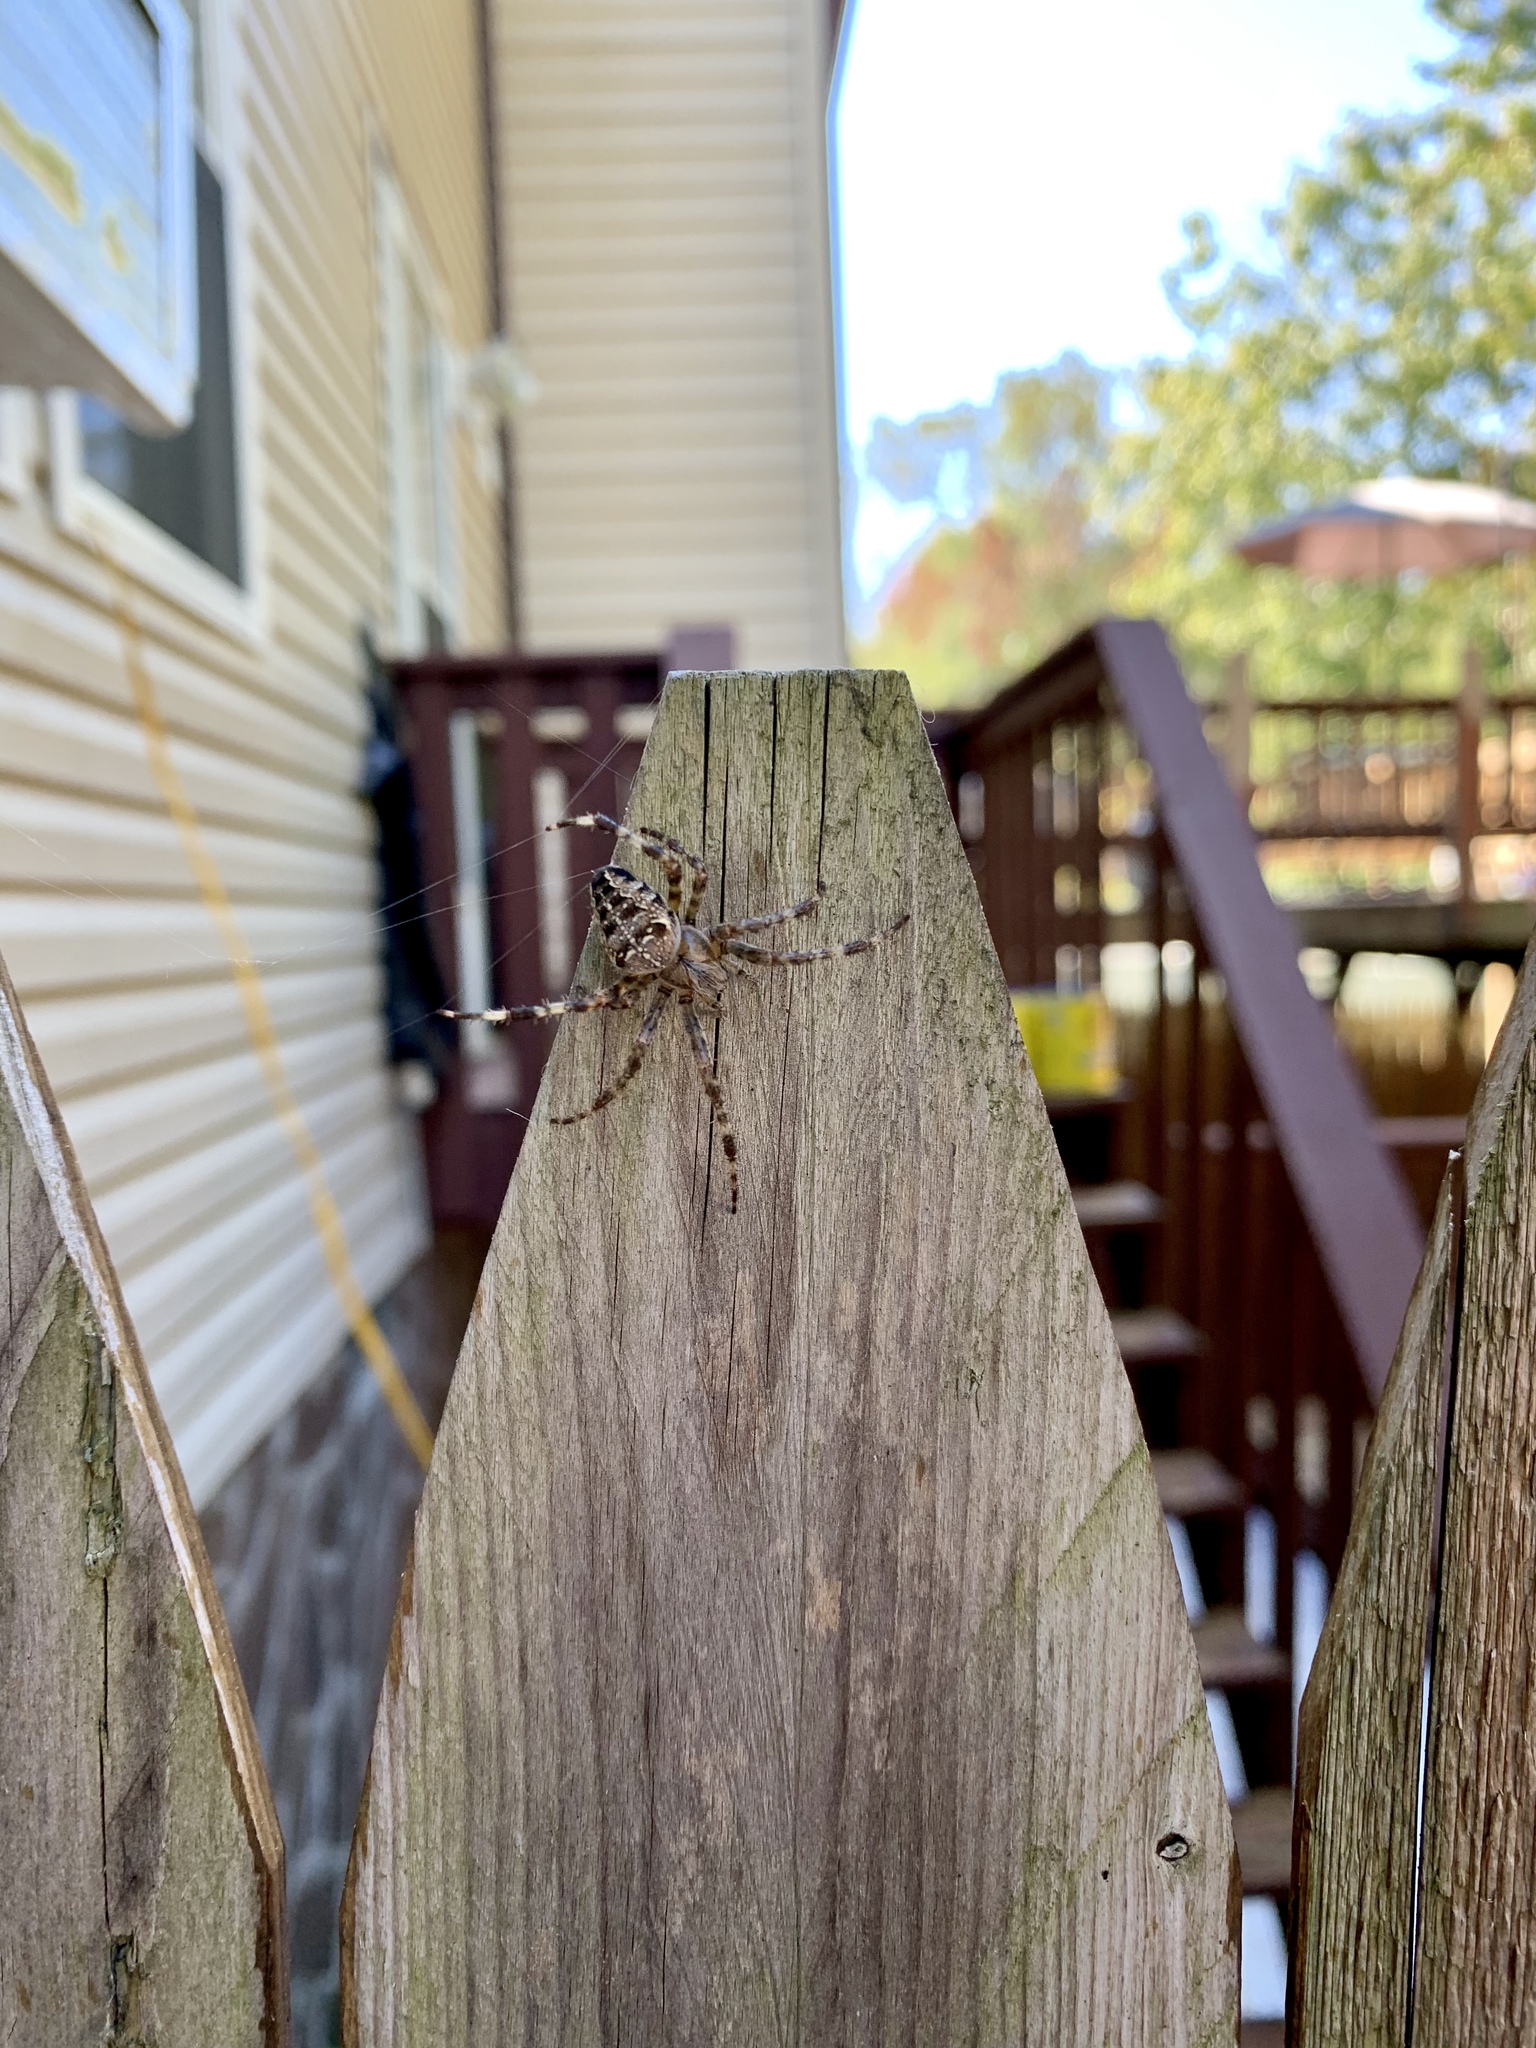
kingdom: Animalia
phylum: Arthropoda
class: Arachnida
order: Araneae
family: Araneidae
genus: Araneus
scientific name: Araneus diadematus
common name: Cross orbweaver
